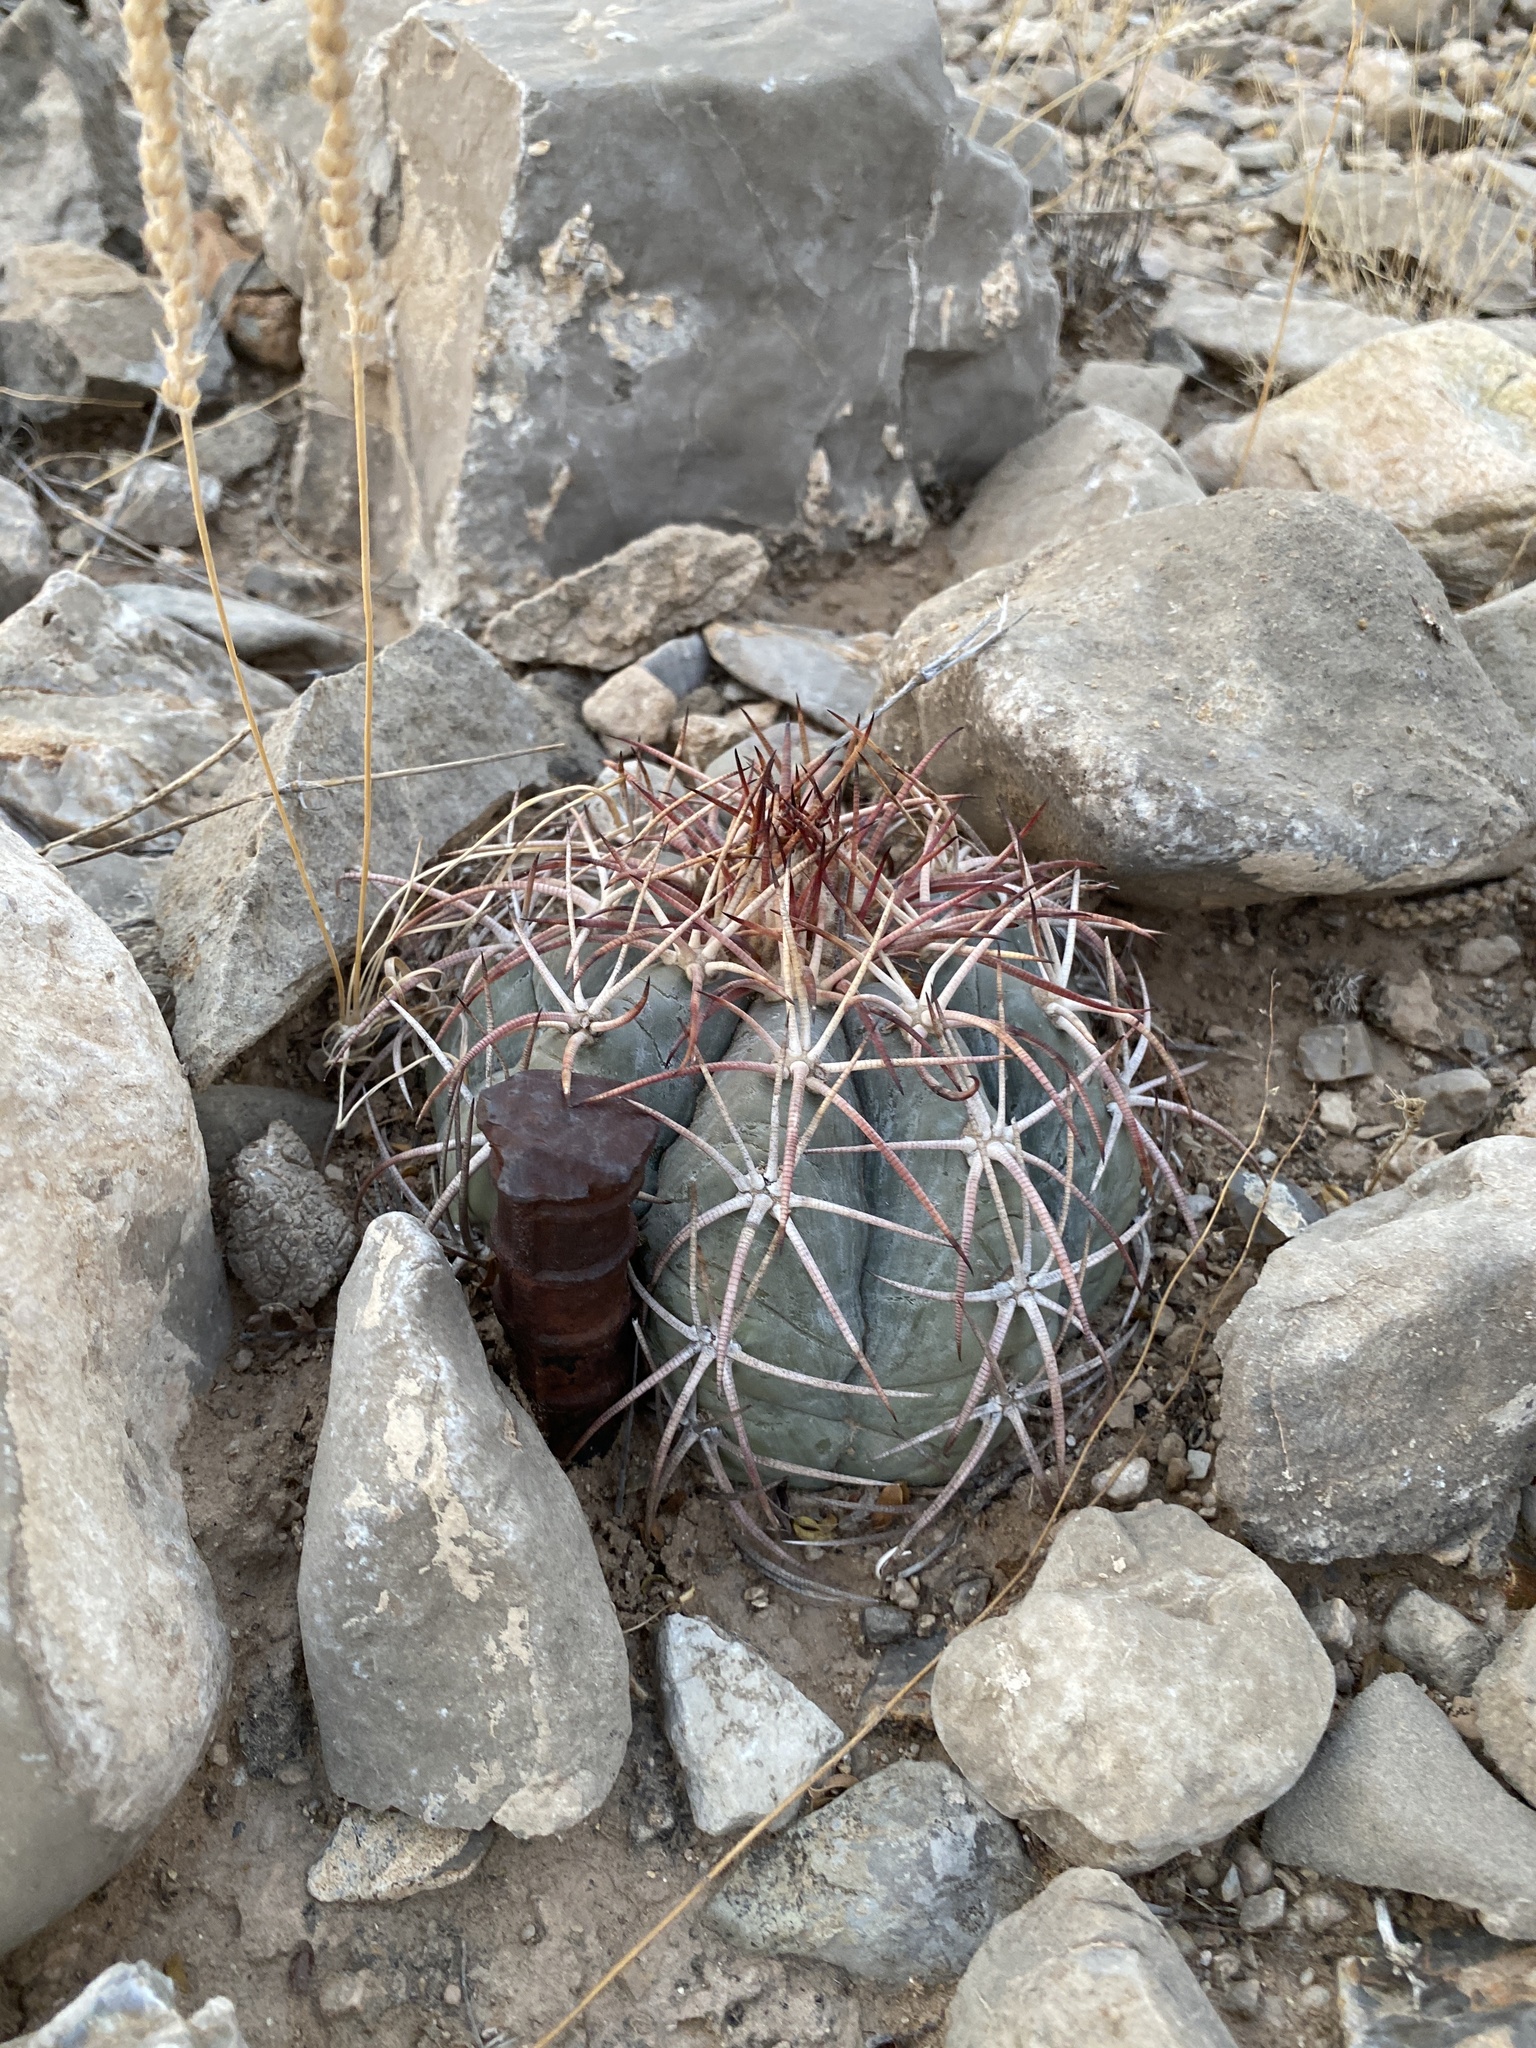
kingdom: Plantae
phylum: Tracheophyta
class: Magnoliopsida
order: Caryophyllales
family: Cactaceae
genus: Echinocactus
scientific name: Echinocactus horizonthalonius
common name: Devilshead
